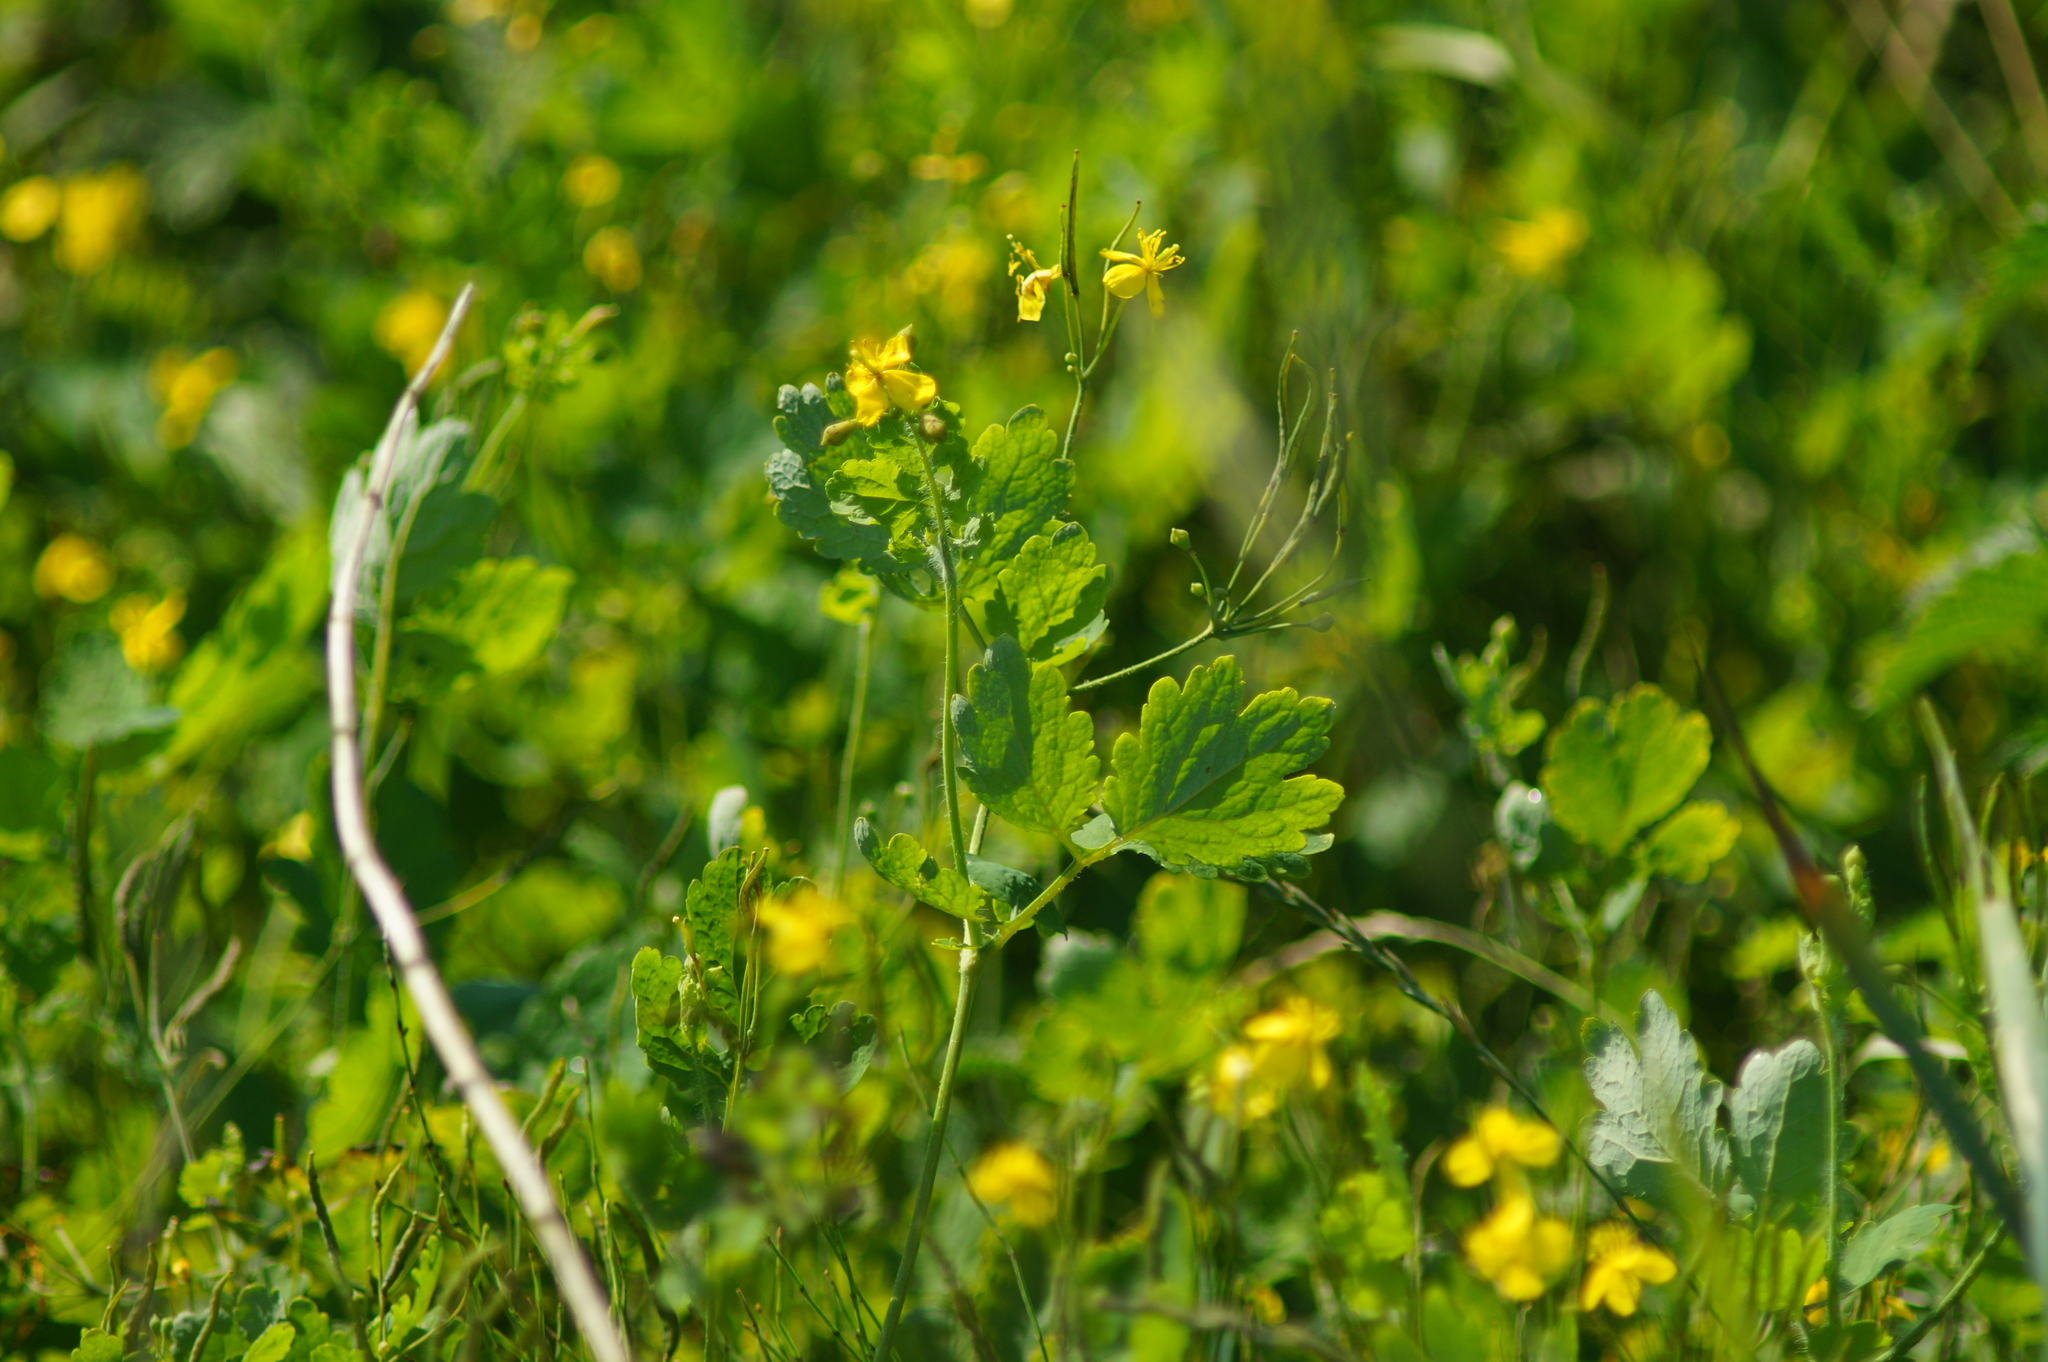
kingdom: Plantae
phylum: Tracheophyta
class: Magnoliopsida
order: Ranunculales
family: Papaveraceae
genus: Chelidonium
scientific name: Chelidonium majus
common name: Greater celandine
